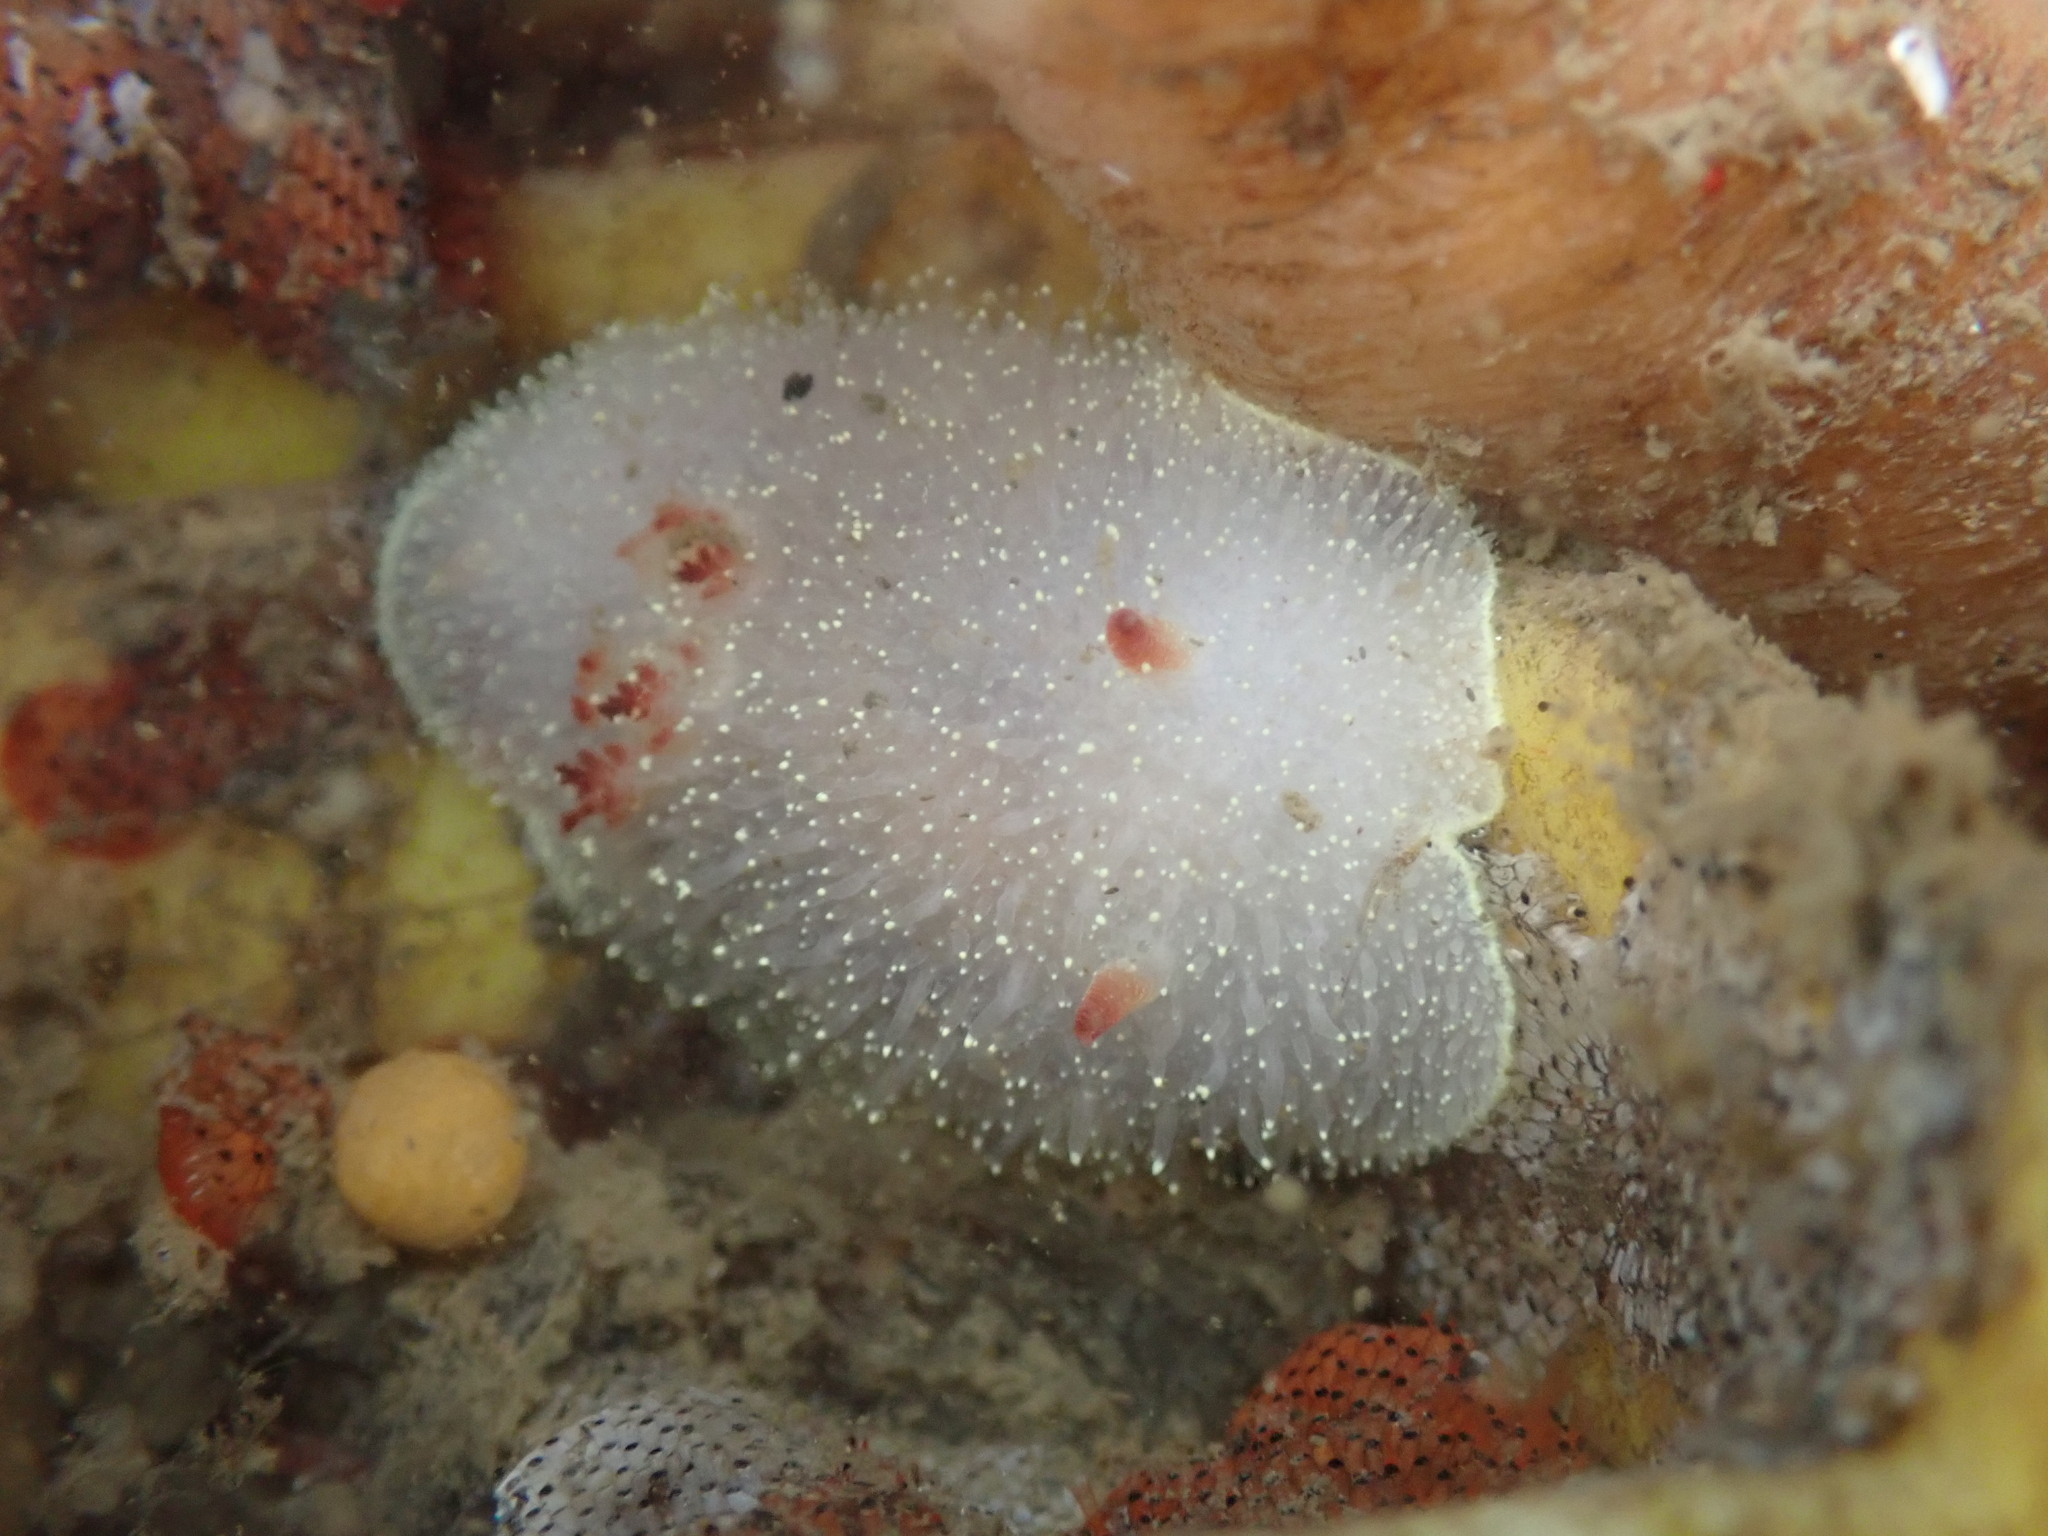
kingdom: Animalia
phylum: Mollusca
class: Gastropoda
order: Nudibranchia
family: Onchidorididae
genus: Acanthodoris
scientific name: Acanthodoris nanaimoensis
